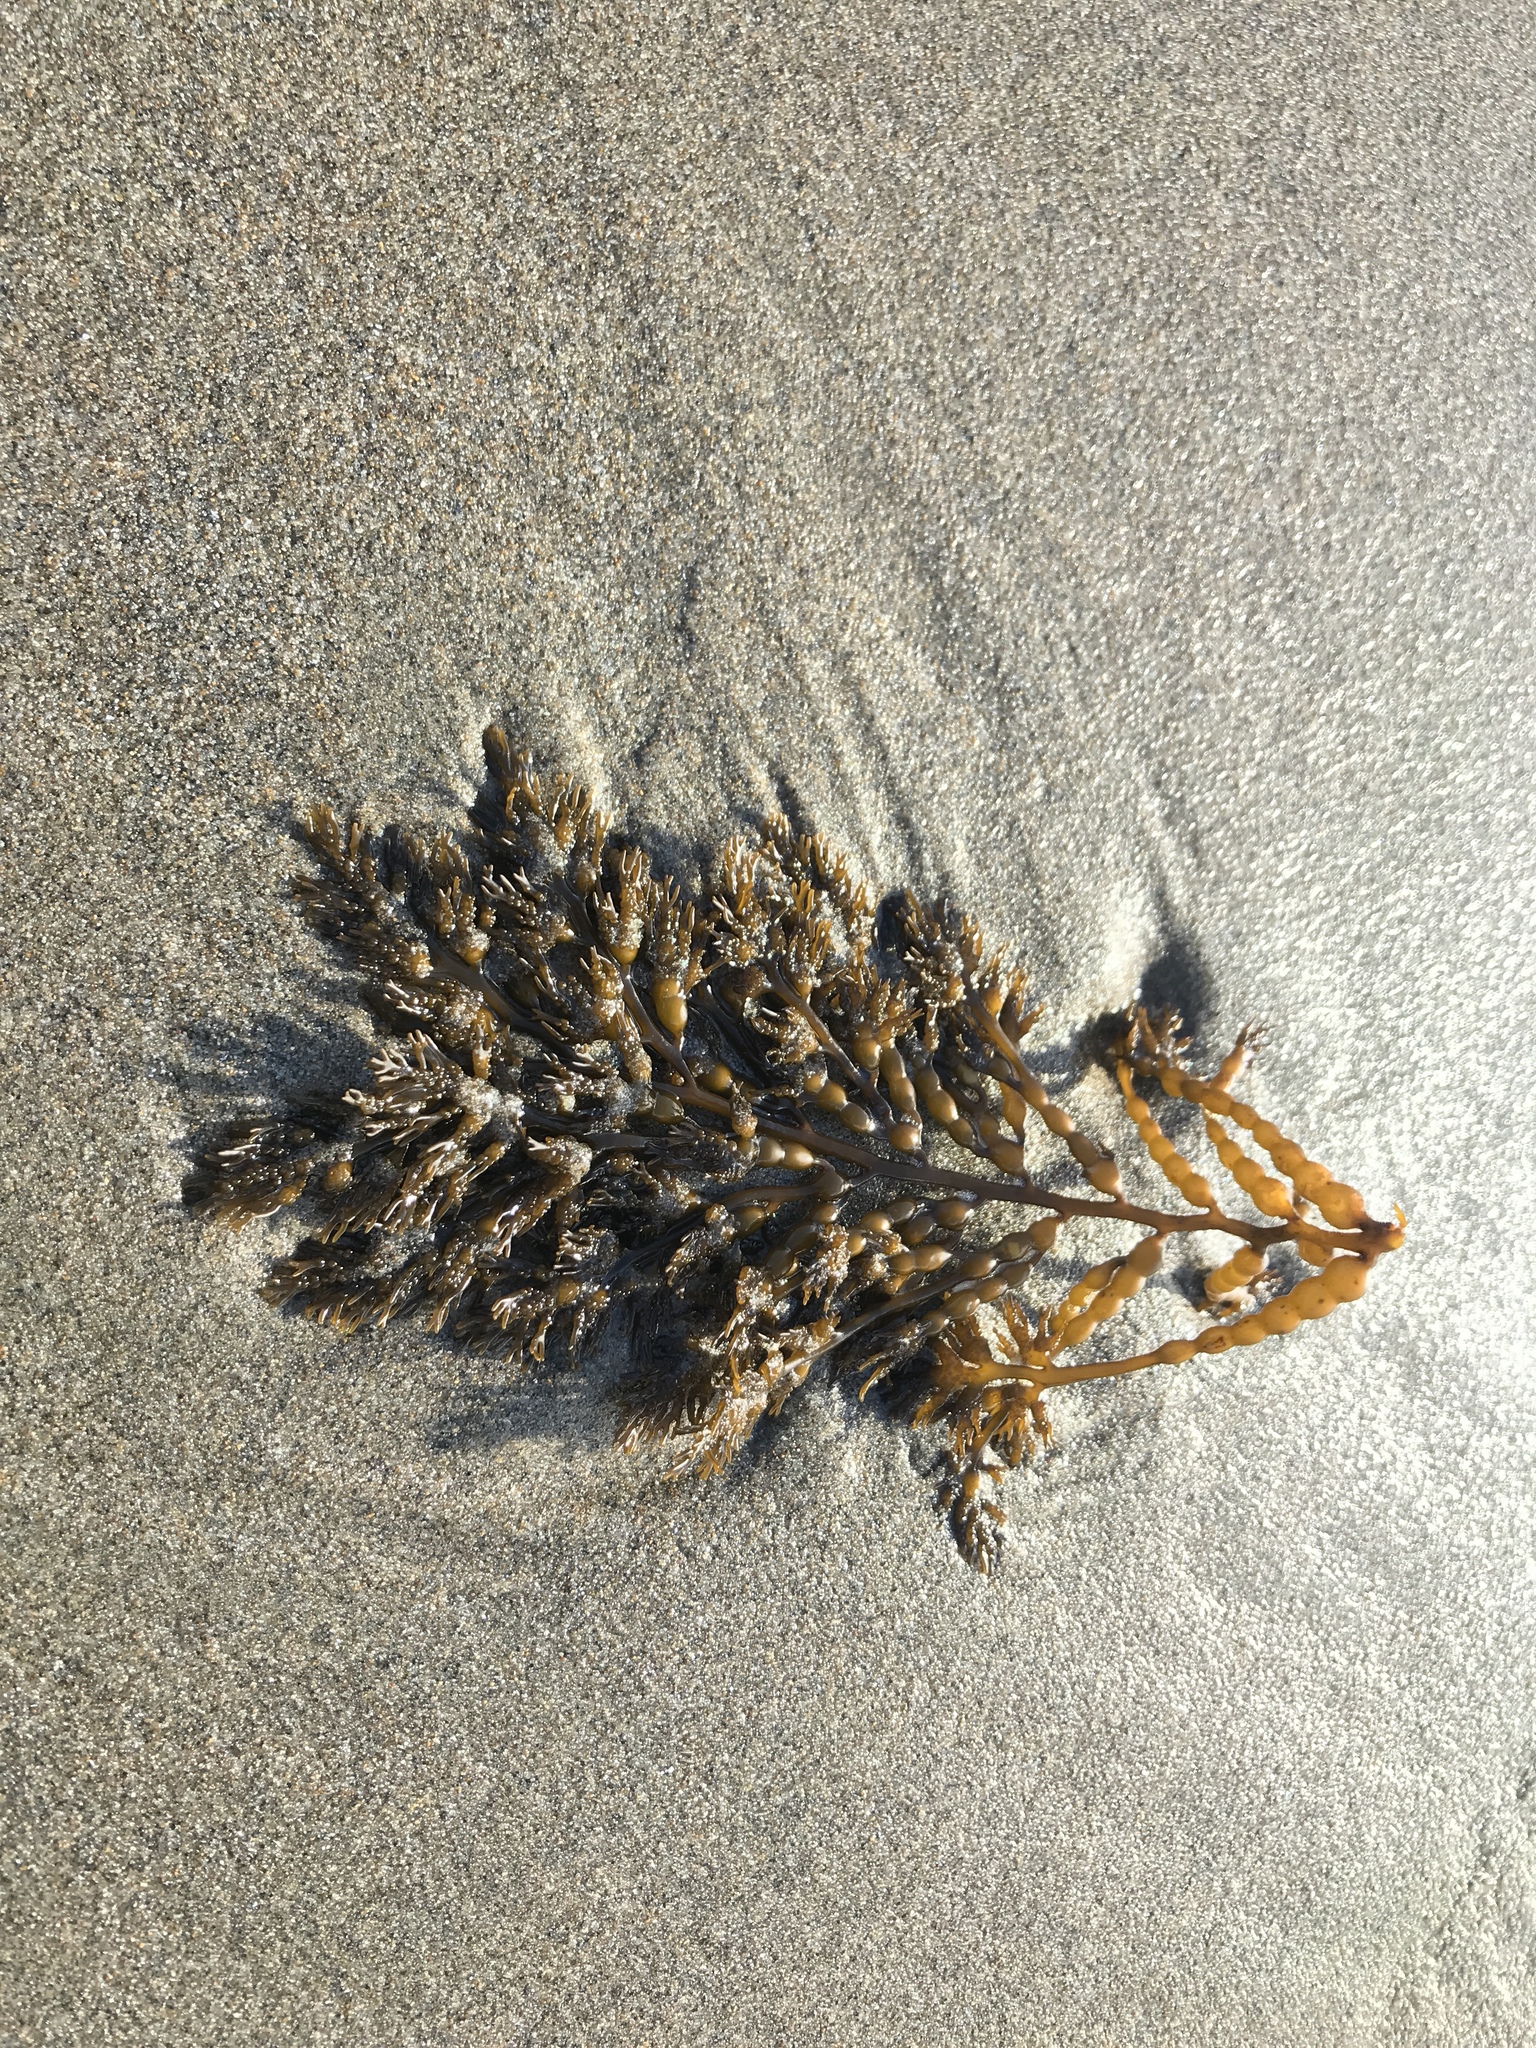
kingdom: Chromista
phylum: Ochrophyta
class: Phaeophyceae
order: Fucales
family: Sargassaceae
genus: Stephanocystis
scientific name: Stephanocystis
